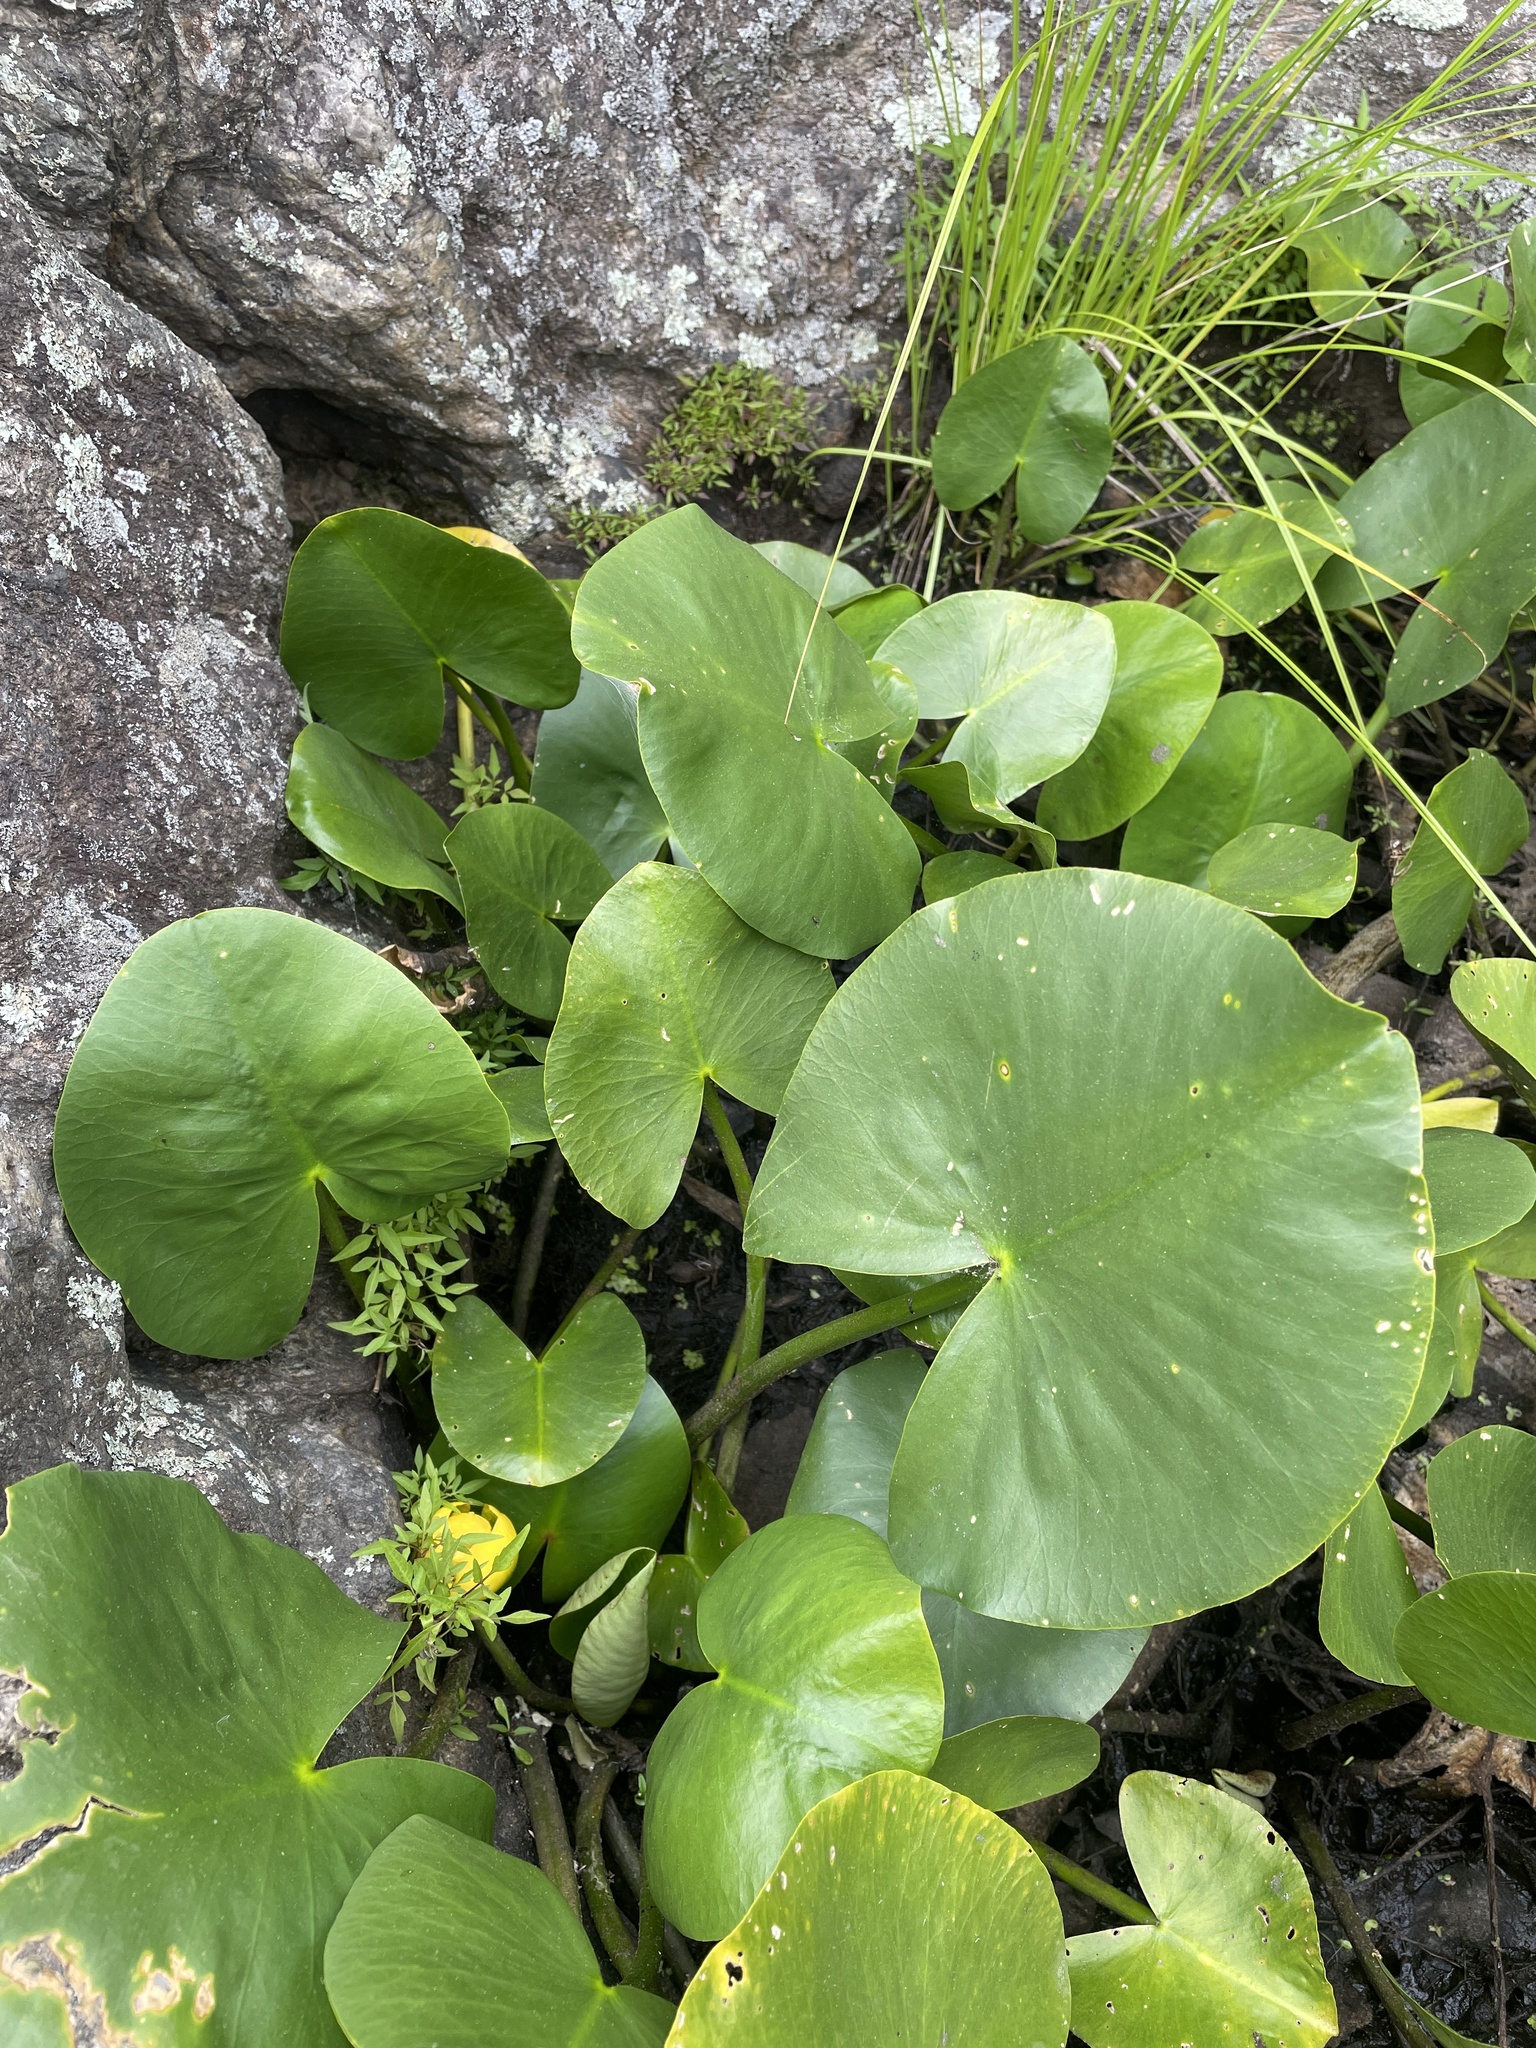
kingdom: Plantae
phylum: Tracheophyta
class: Magnoliopsida
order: Nymphaeales
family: Nymphaeaceae
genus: Nuphar
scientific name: Nuphar advena
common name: Spatter-dock
